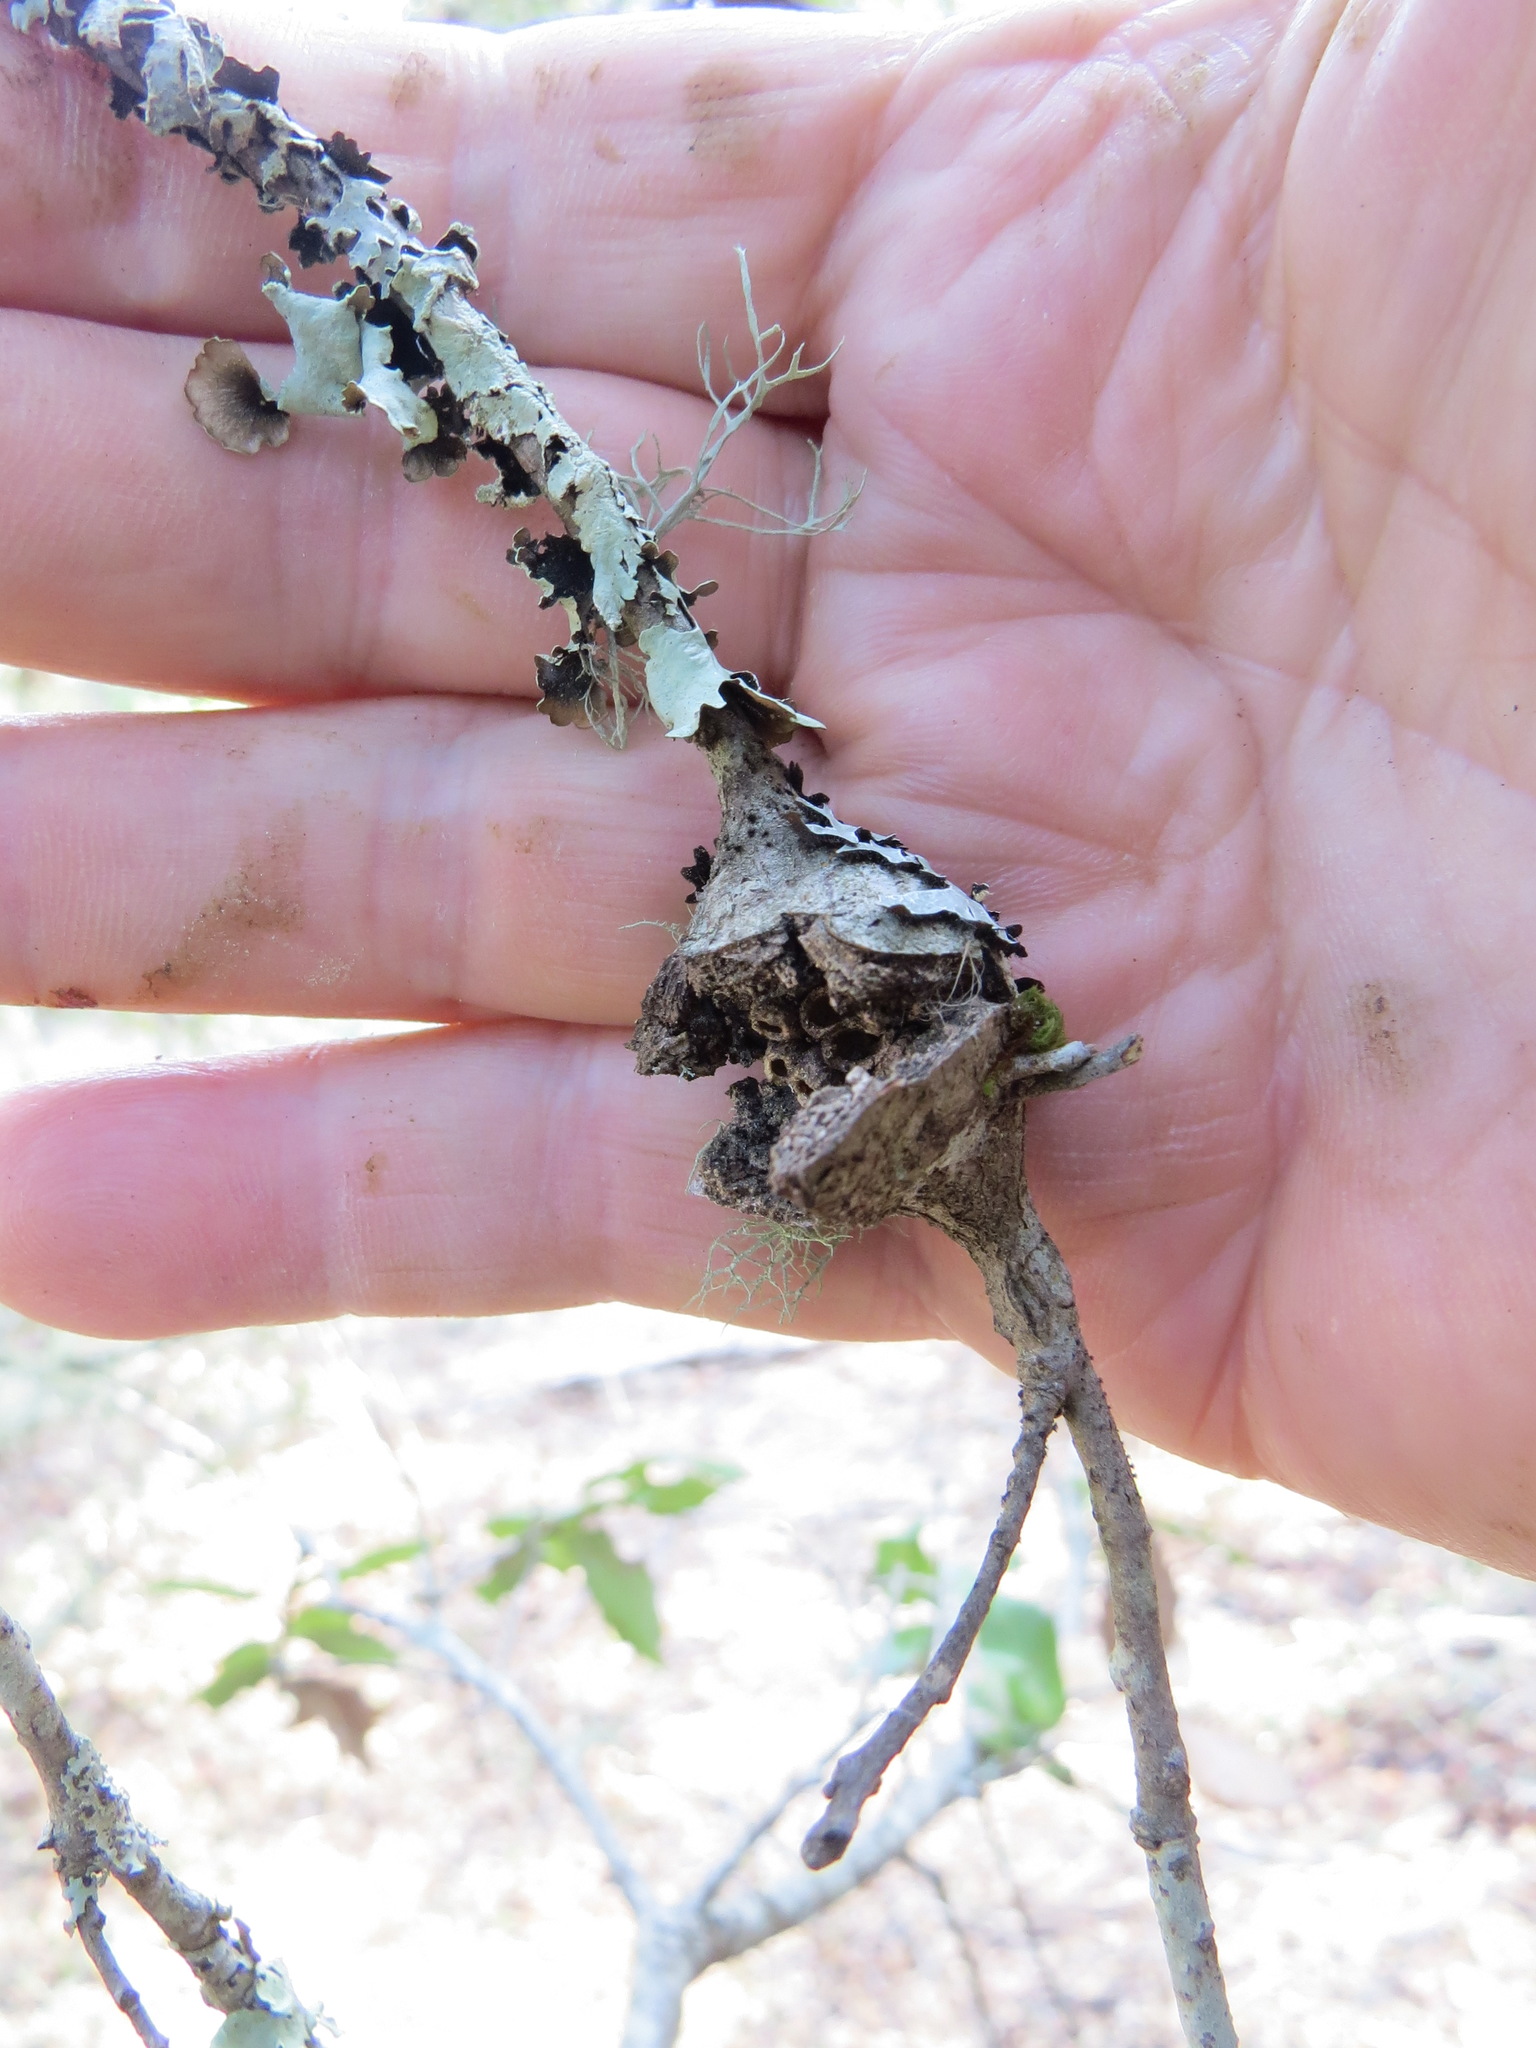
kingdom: Animalia
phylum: Arthropoda
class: Insecta
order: Hymenoptera
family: Cynipidae
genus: Dryocosmus
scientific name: Dryocosmus
